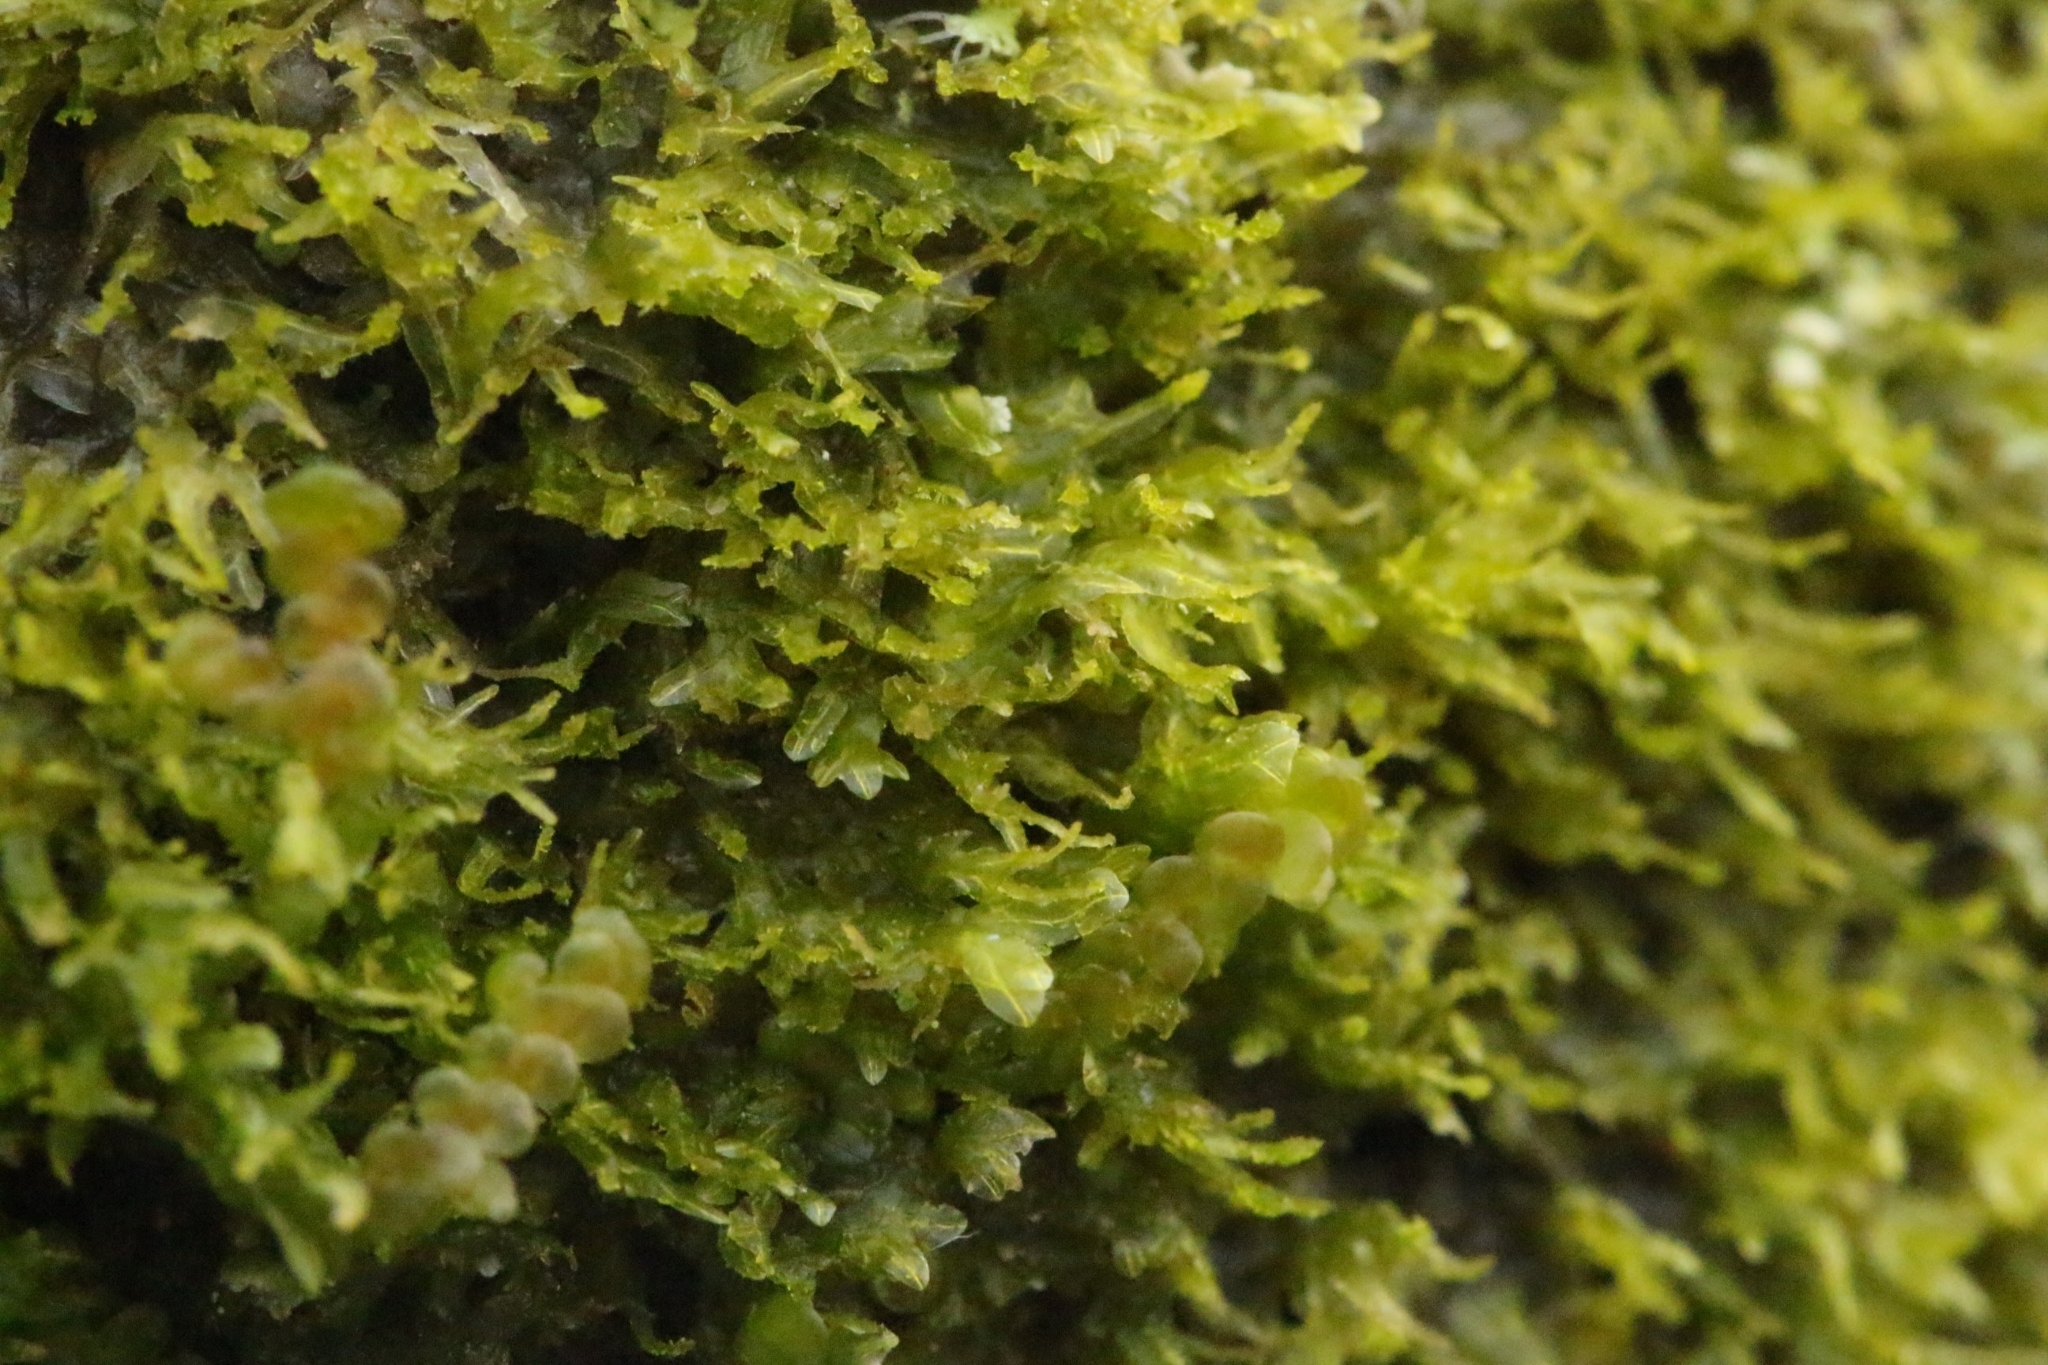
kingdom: Plantae
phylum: Marchantiophyta
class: Jungermanniopsida
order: Metzgeriales
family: Metzgeriaceae
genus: Metzgeria
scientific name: Metzgeria violacea
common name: Blueish veilwort
